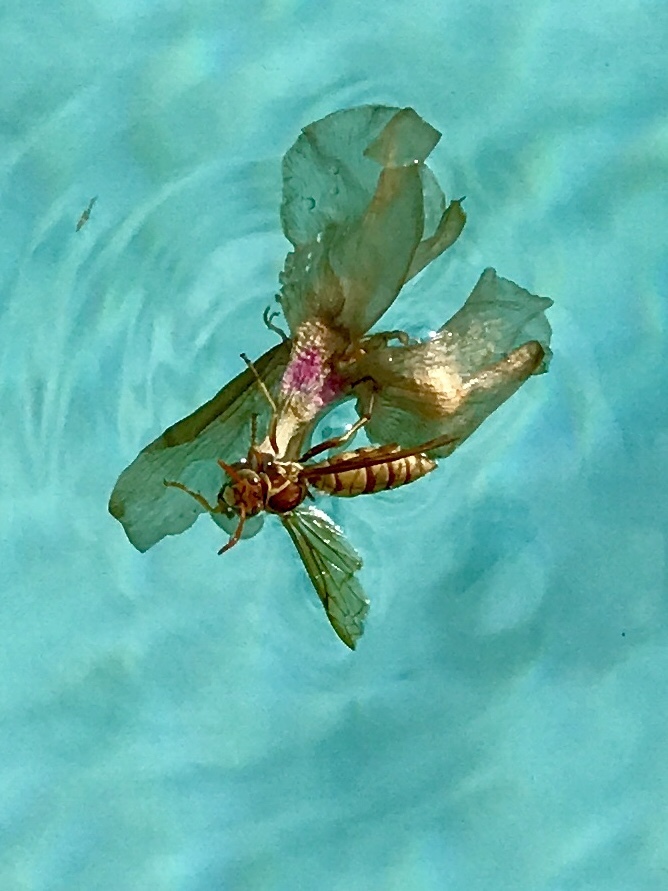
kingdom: Animalia
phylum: Arthropoda
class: Insecta
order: Hymenoptera
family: Eumenidae
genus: Polistes
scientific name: Polistes aurifer
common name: Paper wasp
